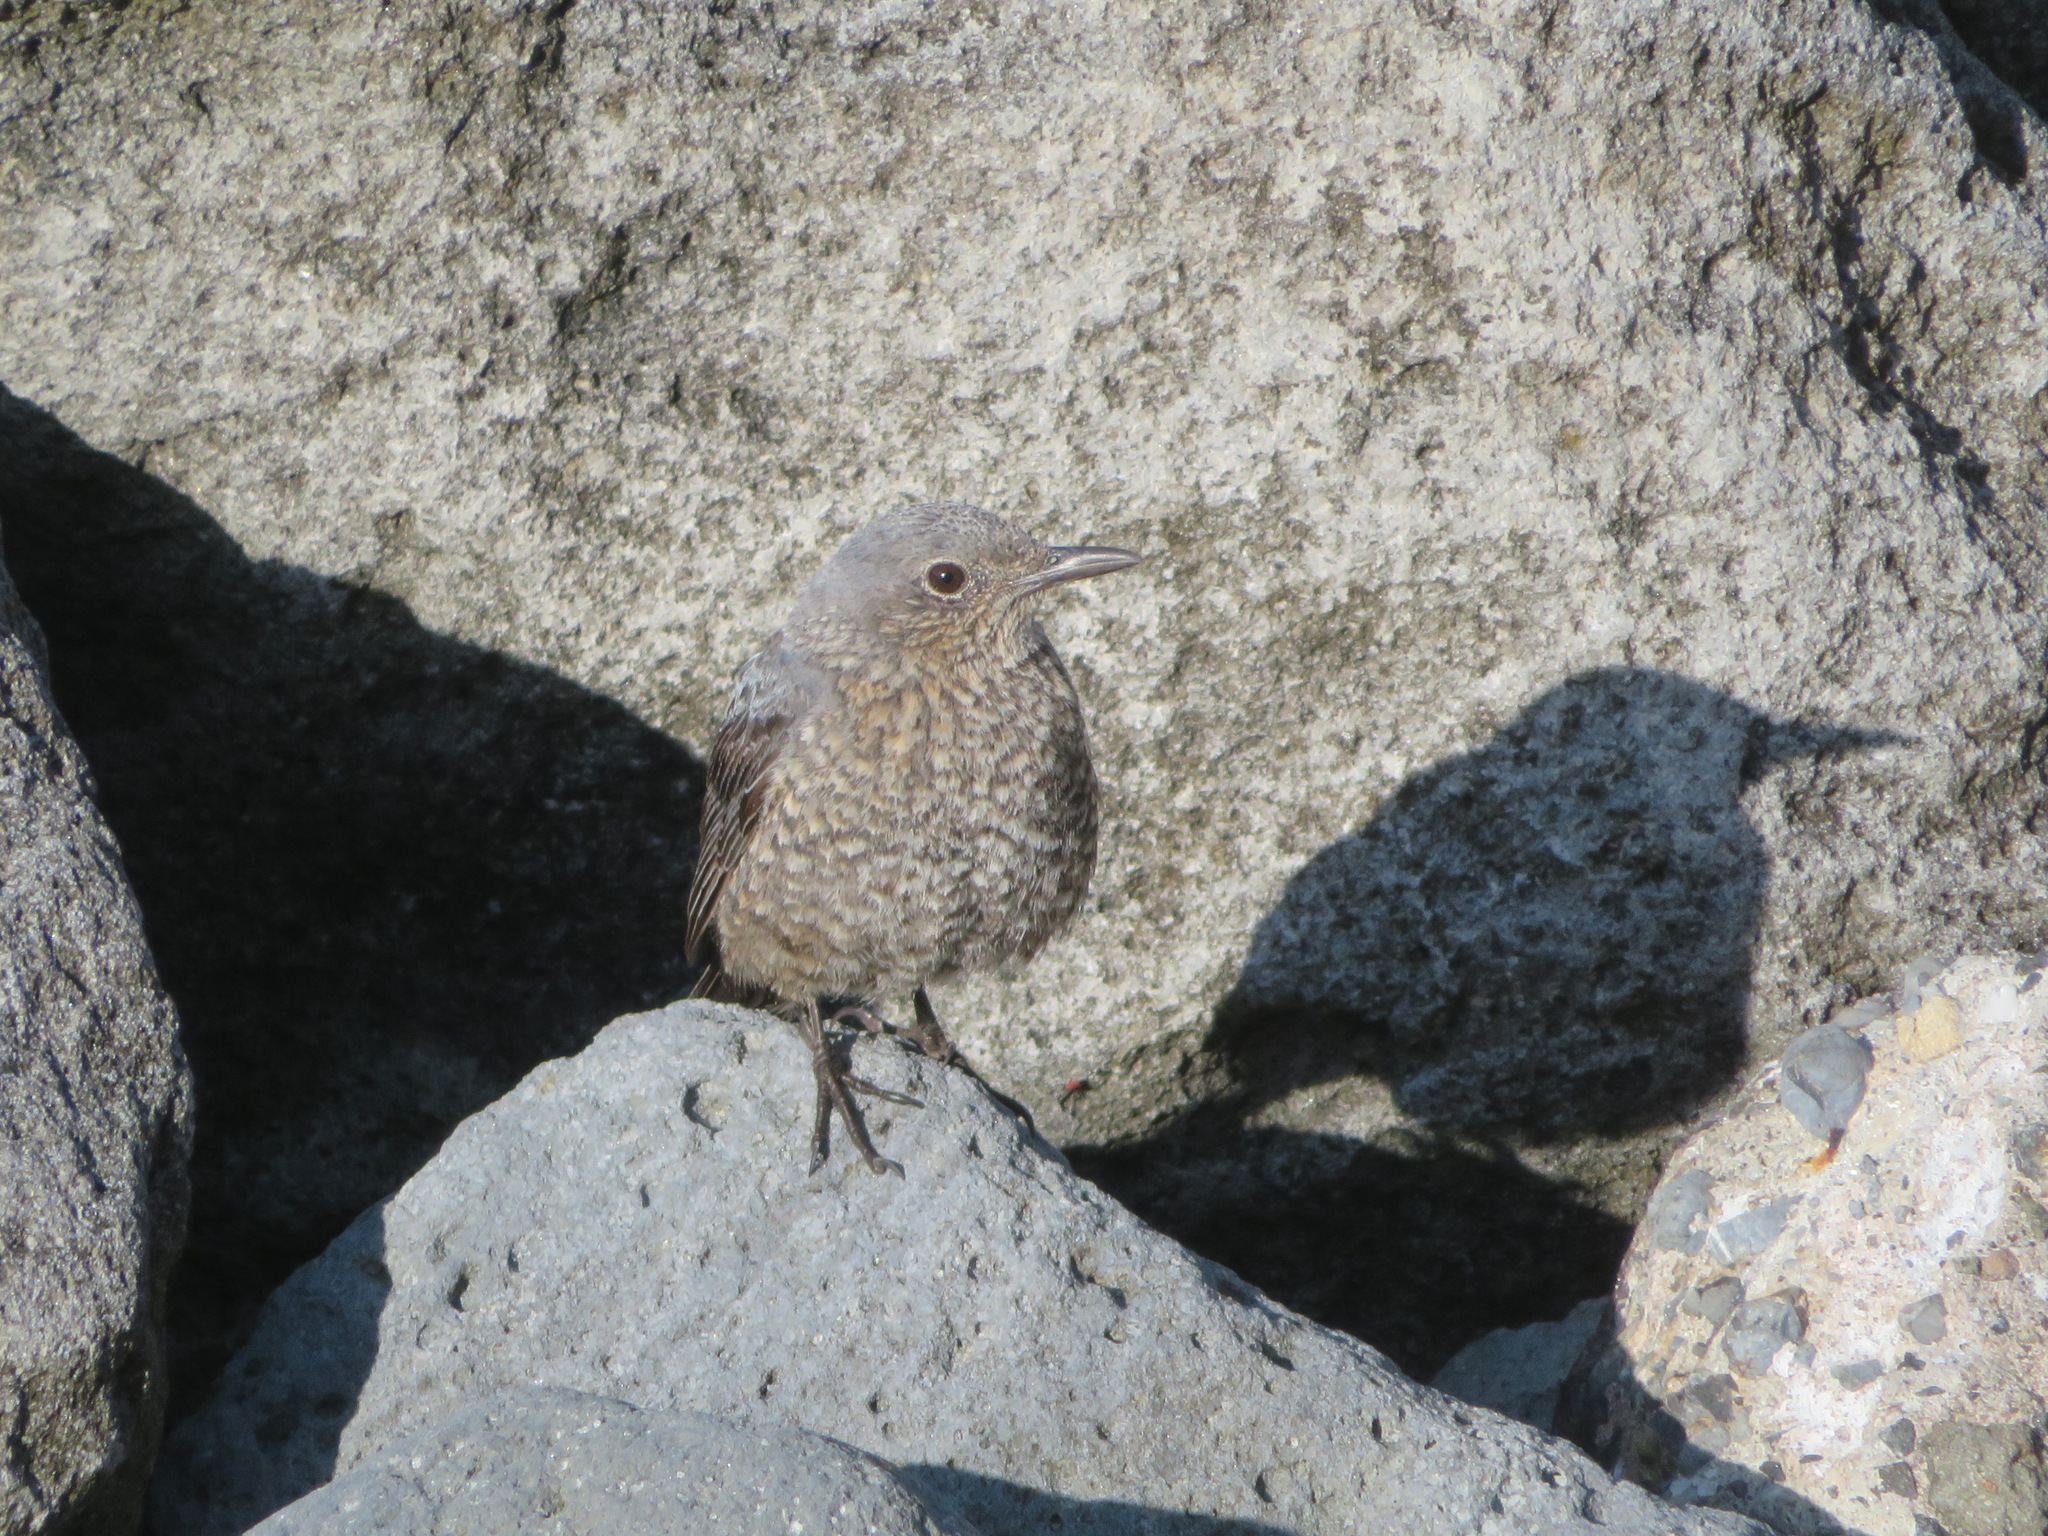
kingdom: Animalia
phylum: Chordata
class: Aves
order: Passeriformes
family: Muscicapidae
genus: Monticola
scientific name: Monticola solitarius
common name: Blue rock thrush
